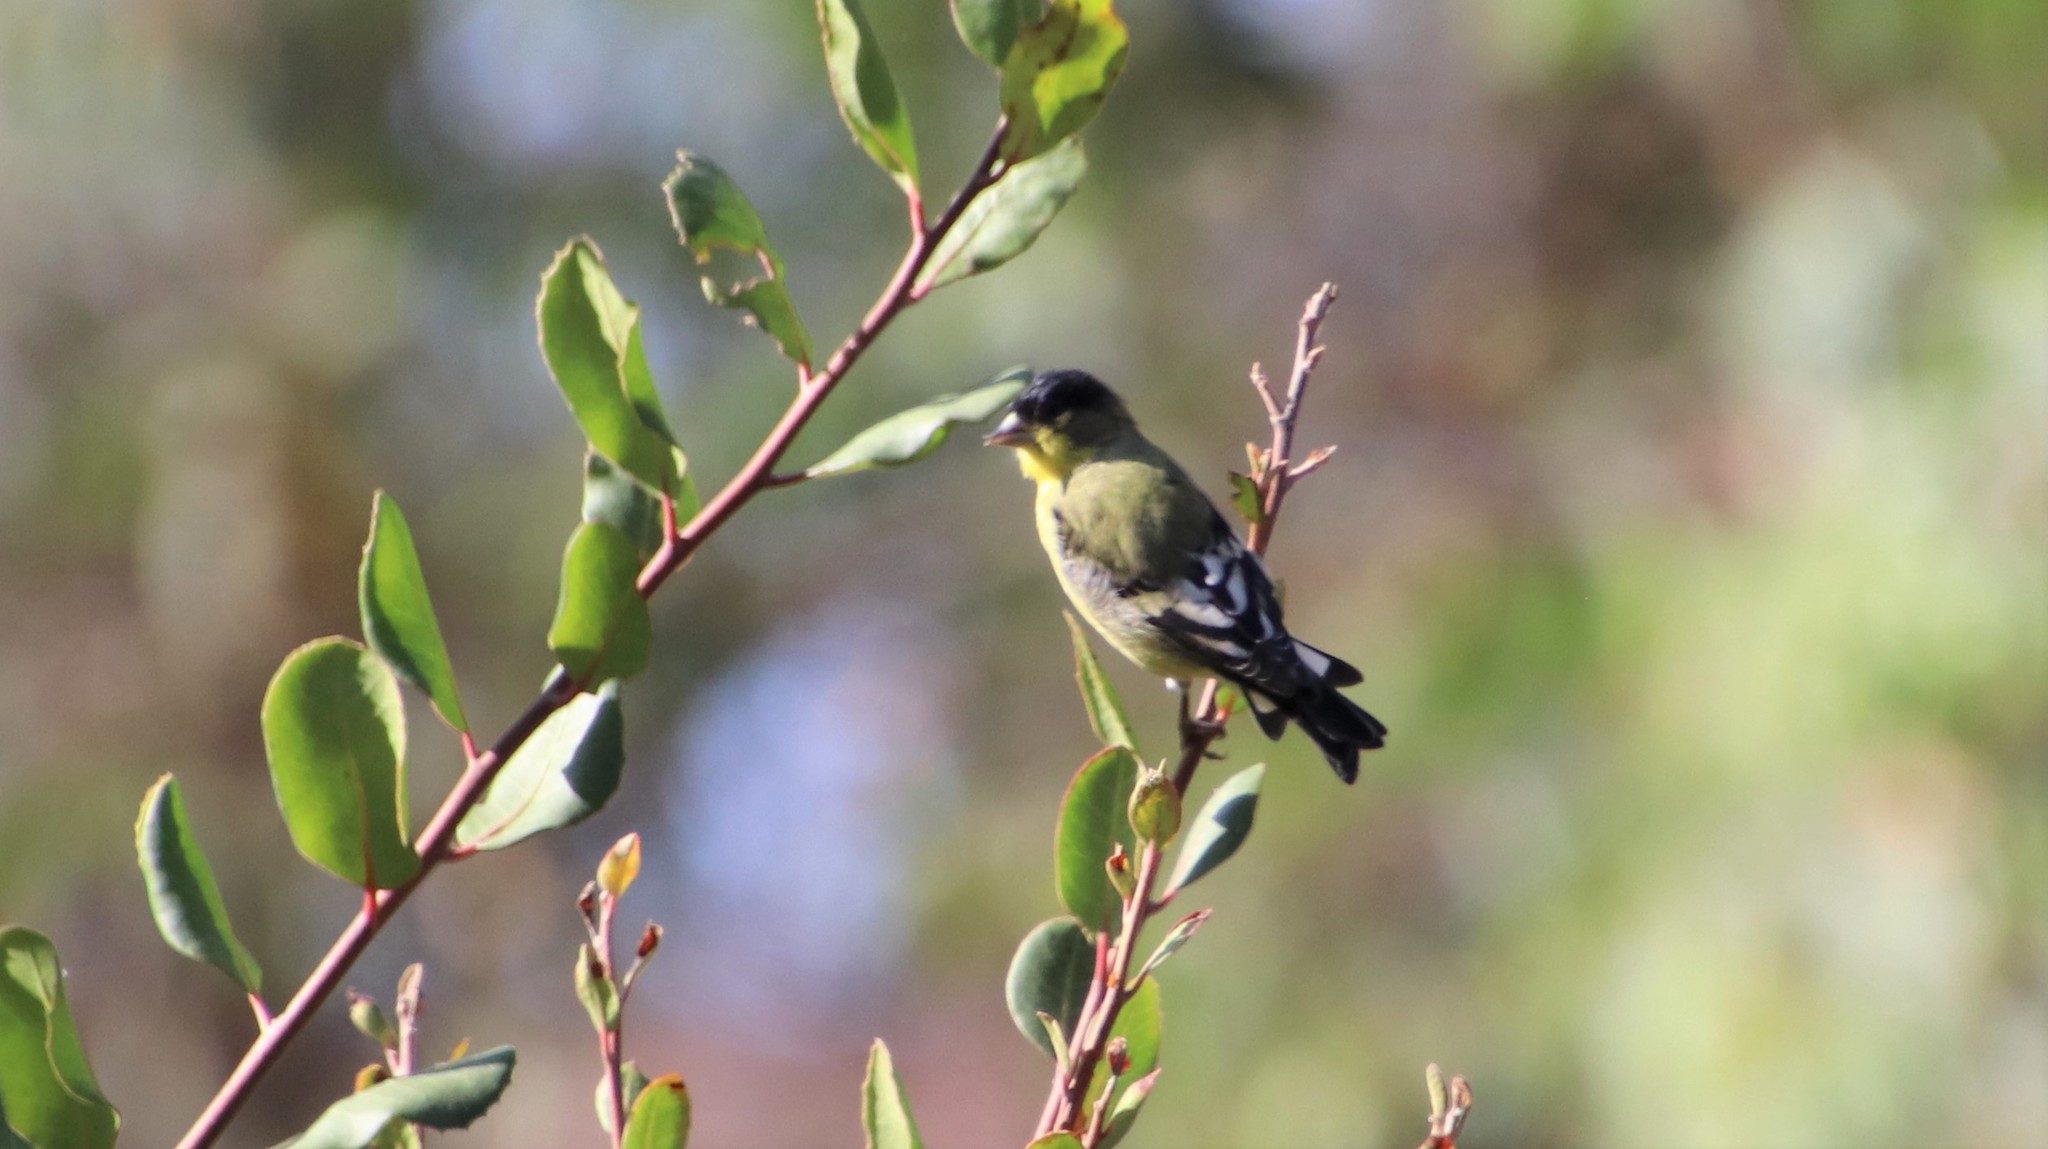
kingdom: Animalia
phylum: Chordata
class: Aves
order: Passeriformes
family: Fringillidae
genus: Spinus
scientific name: Spinus psaltria
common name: Lesser goldfinch
